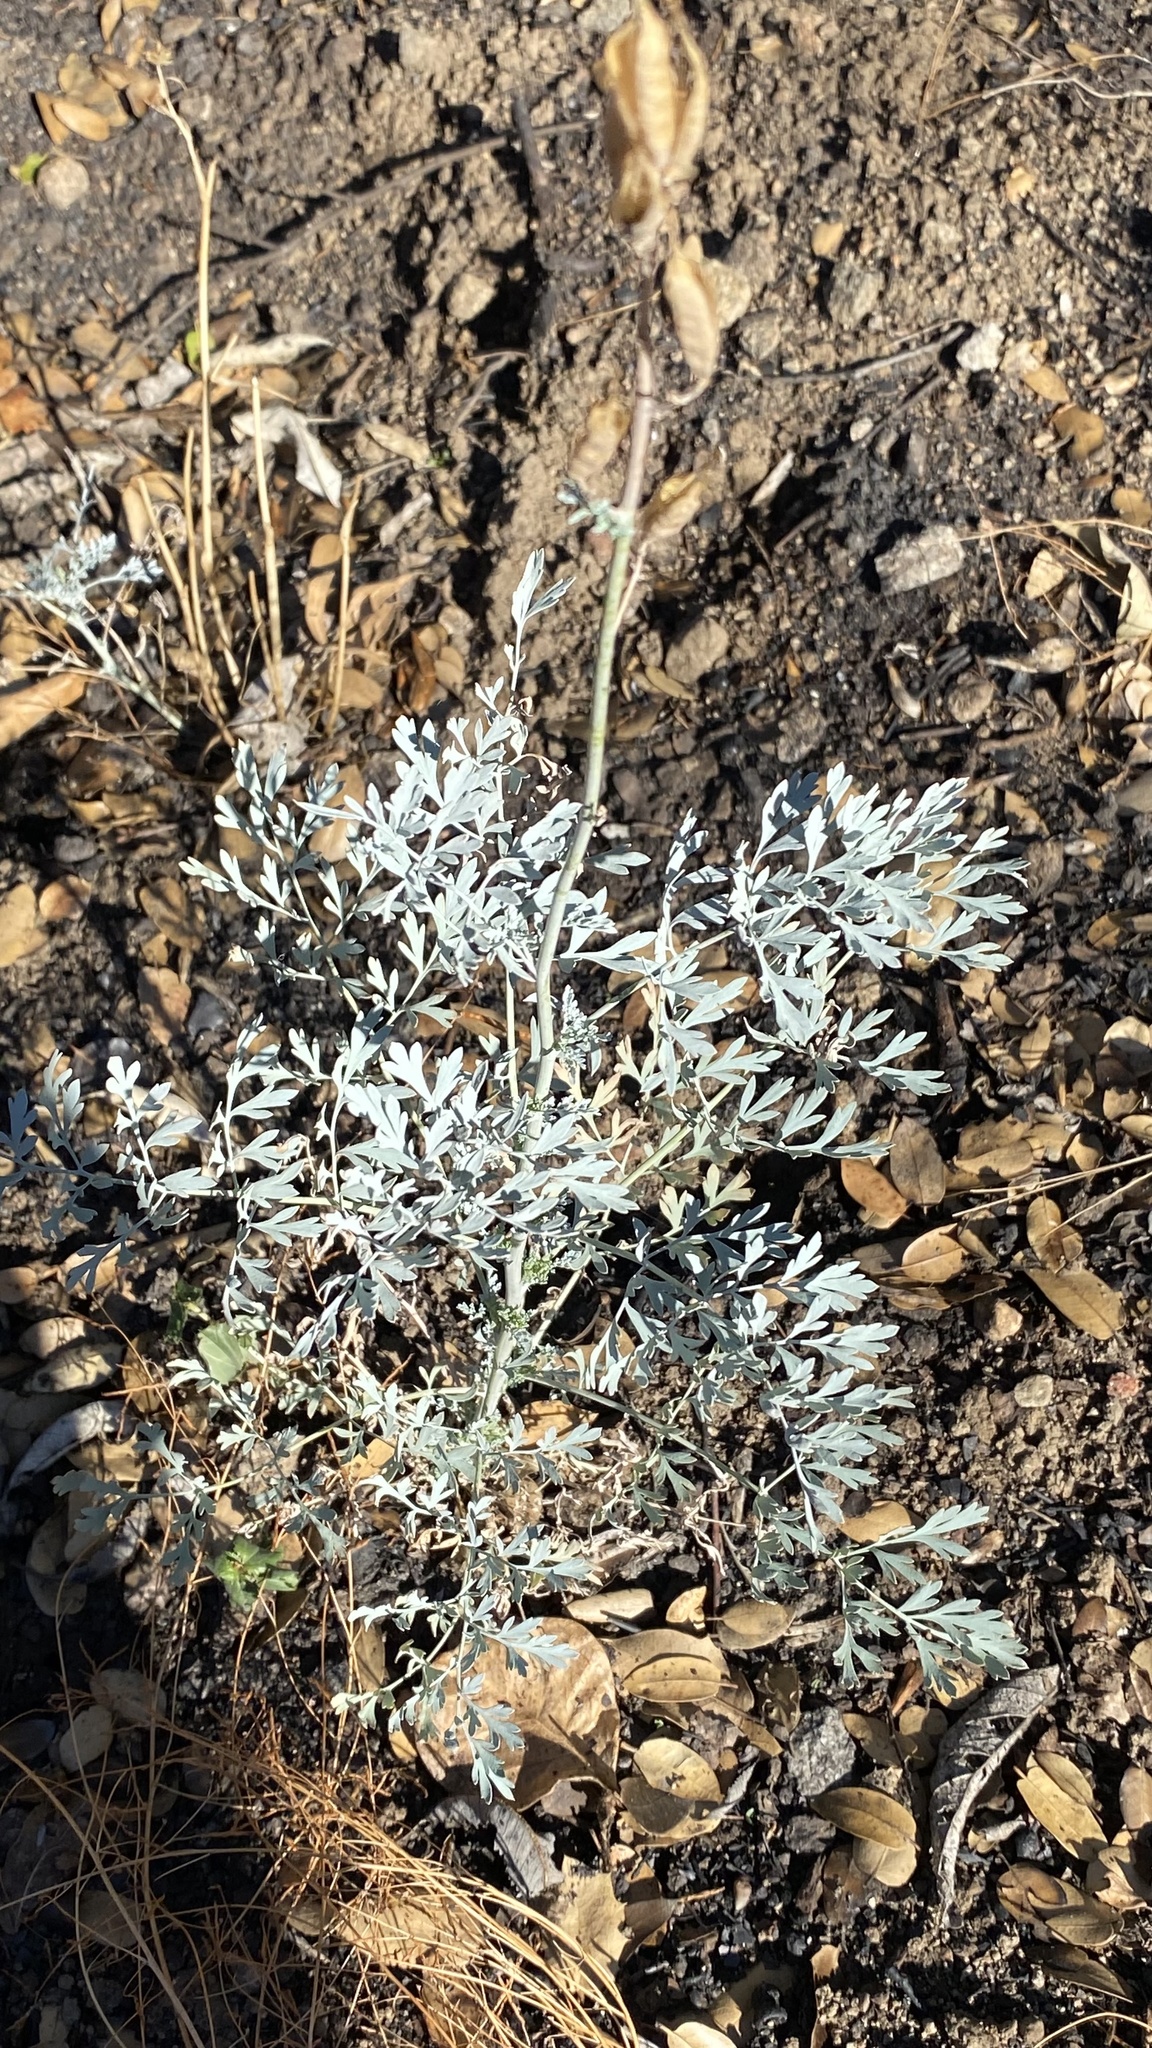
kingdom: Plantae
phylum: Tracheophyta
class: Magnoliopsida
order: Ranunculales
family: Papaveraceae
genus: Ehrendorferia
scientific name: Ehrendorferia chrysantha
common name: Golden eardrops
